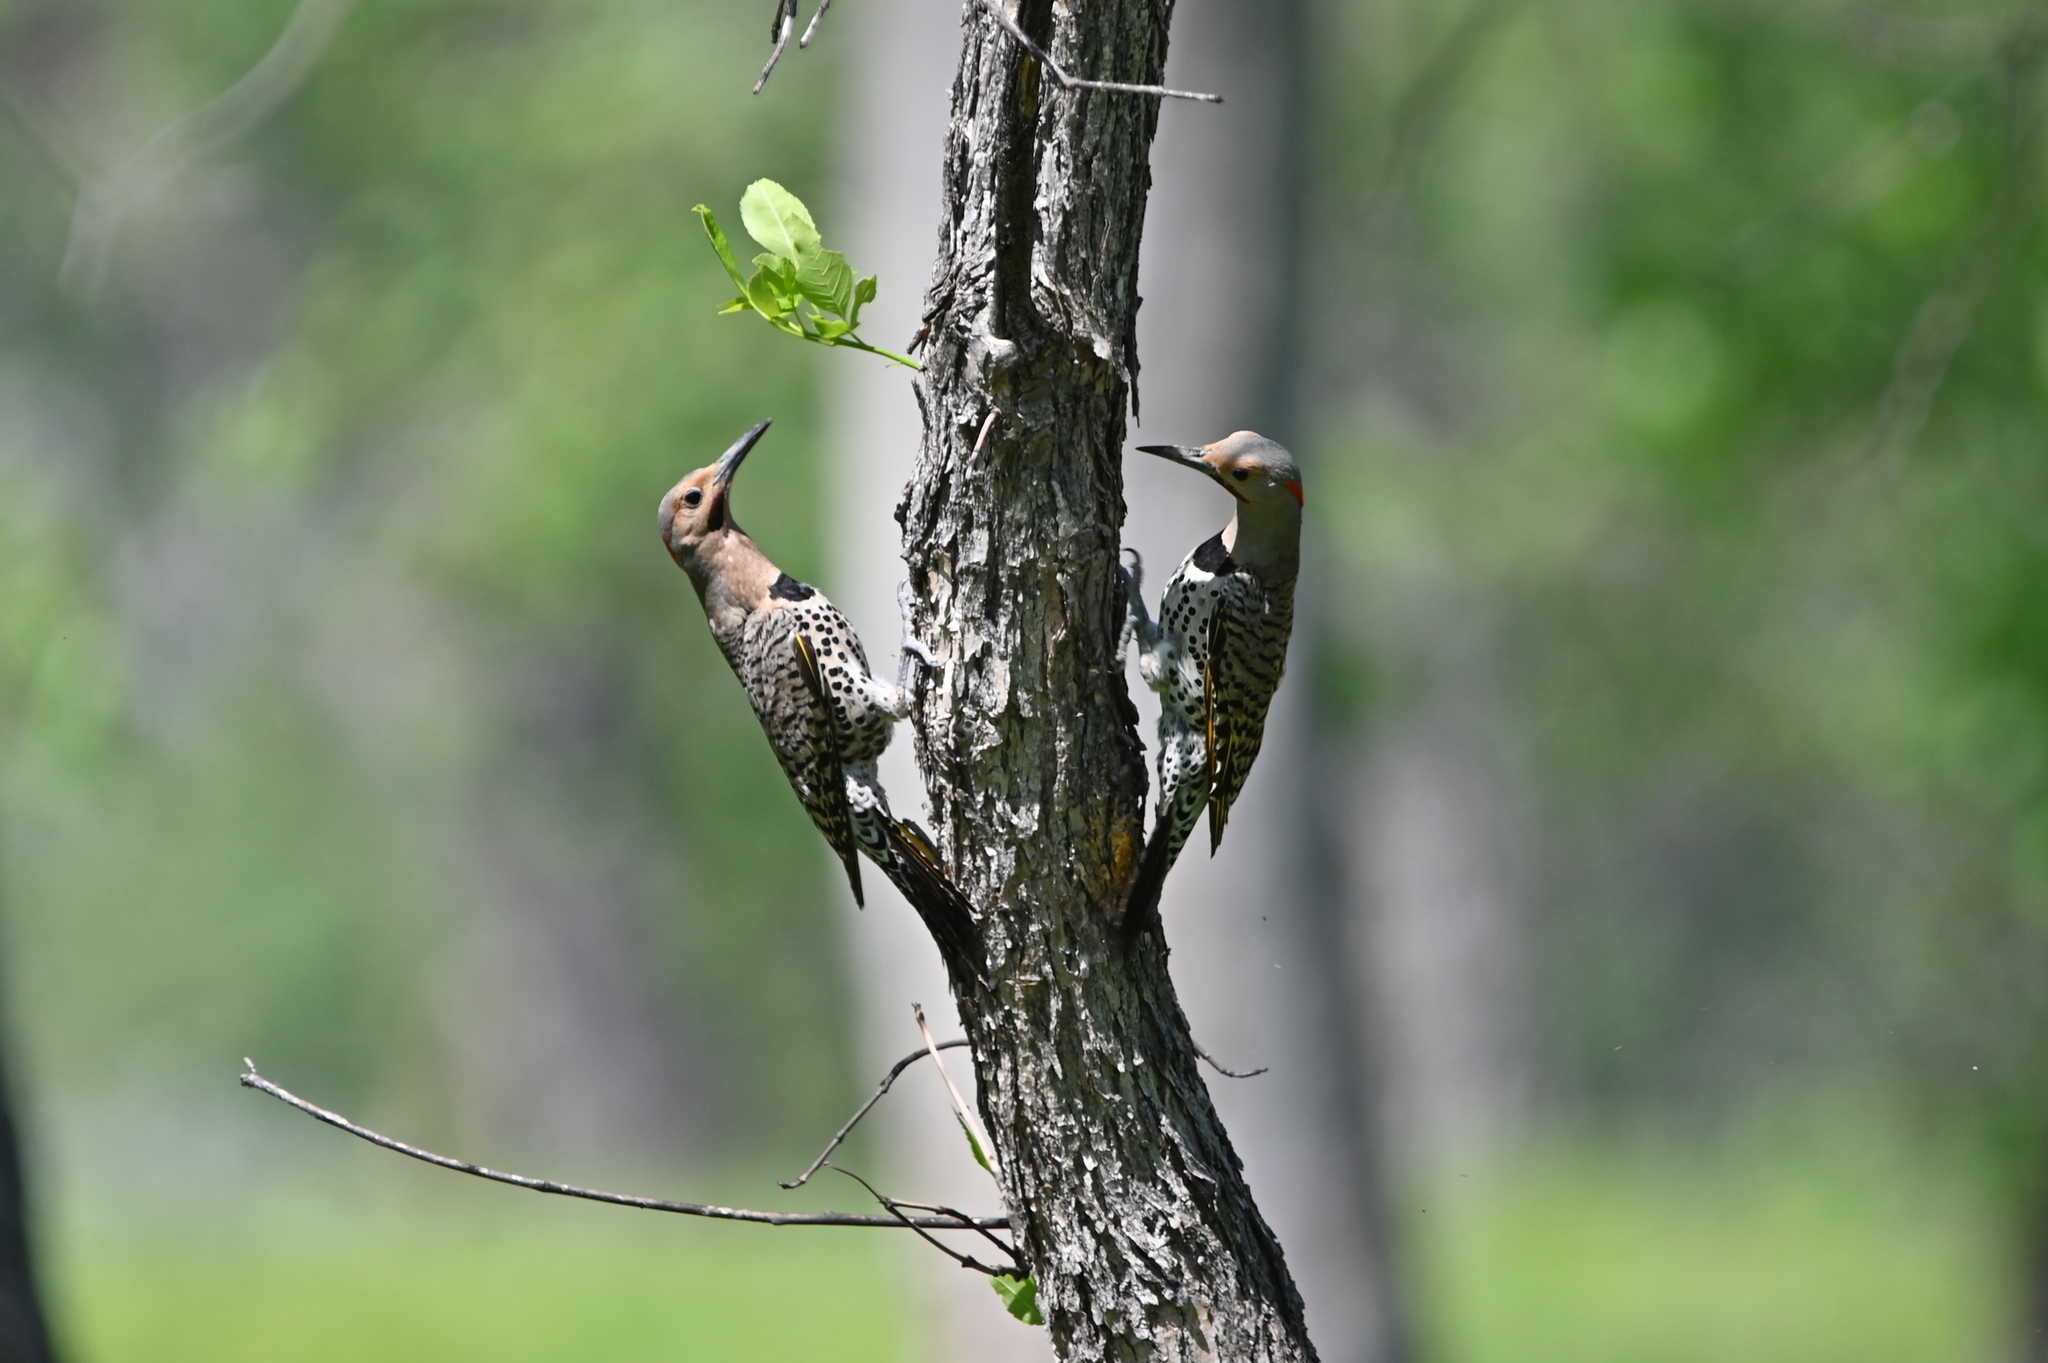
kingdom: Animalia
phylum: Chordata
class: Aves
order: Piciformes
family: Picidae
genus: Colaptes
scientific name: Colaptes auratus
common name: Northern flicker
